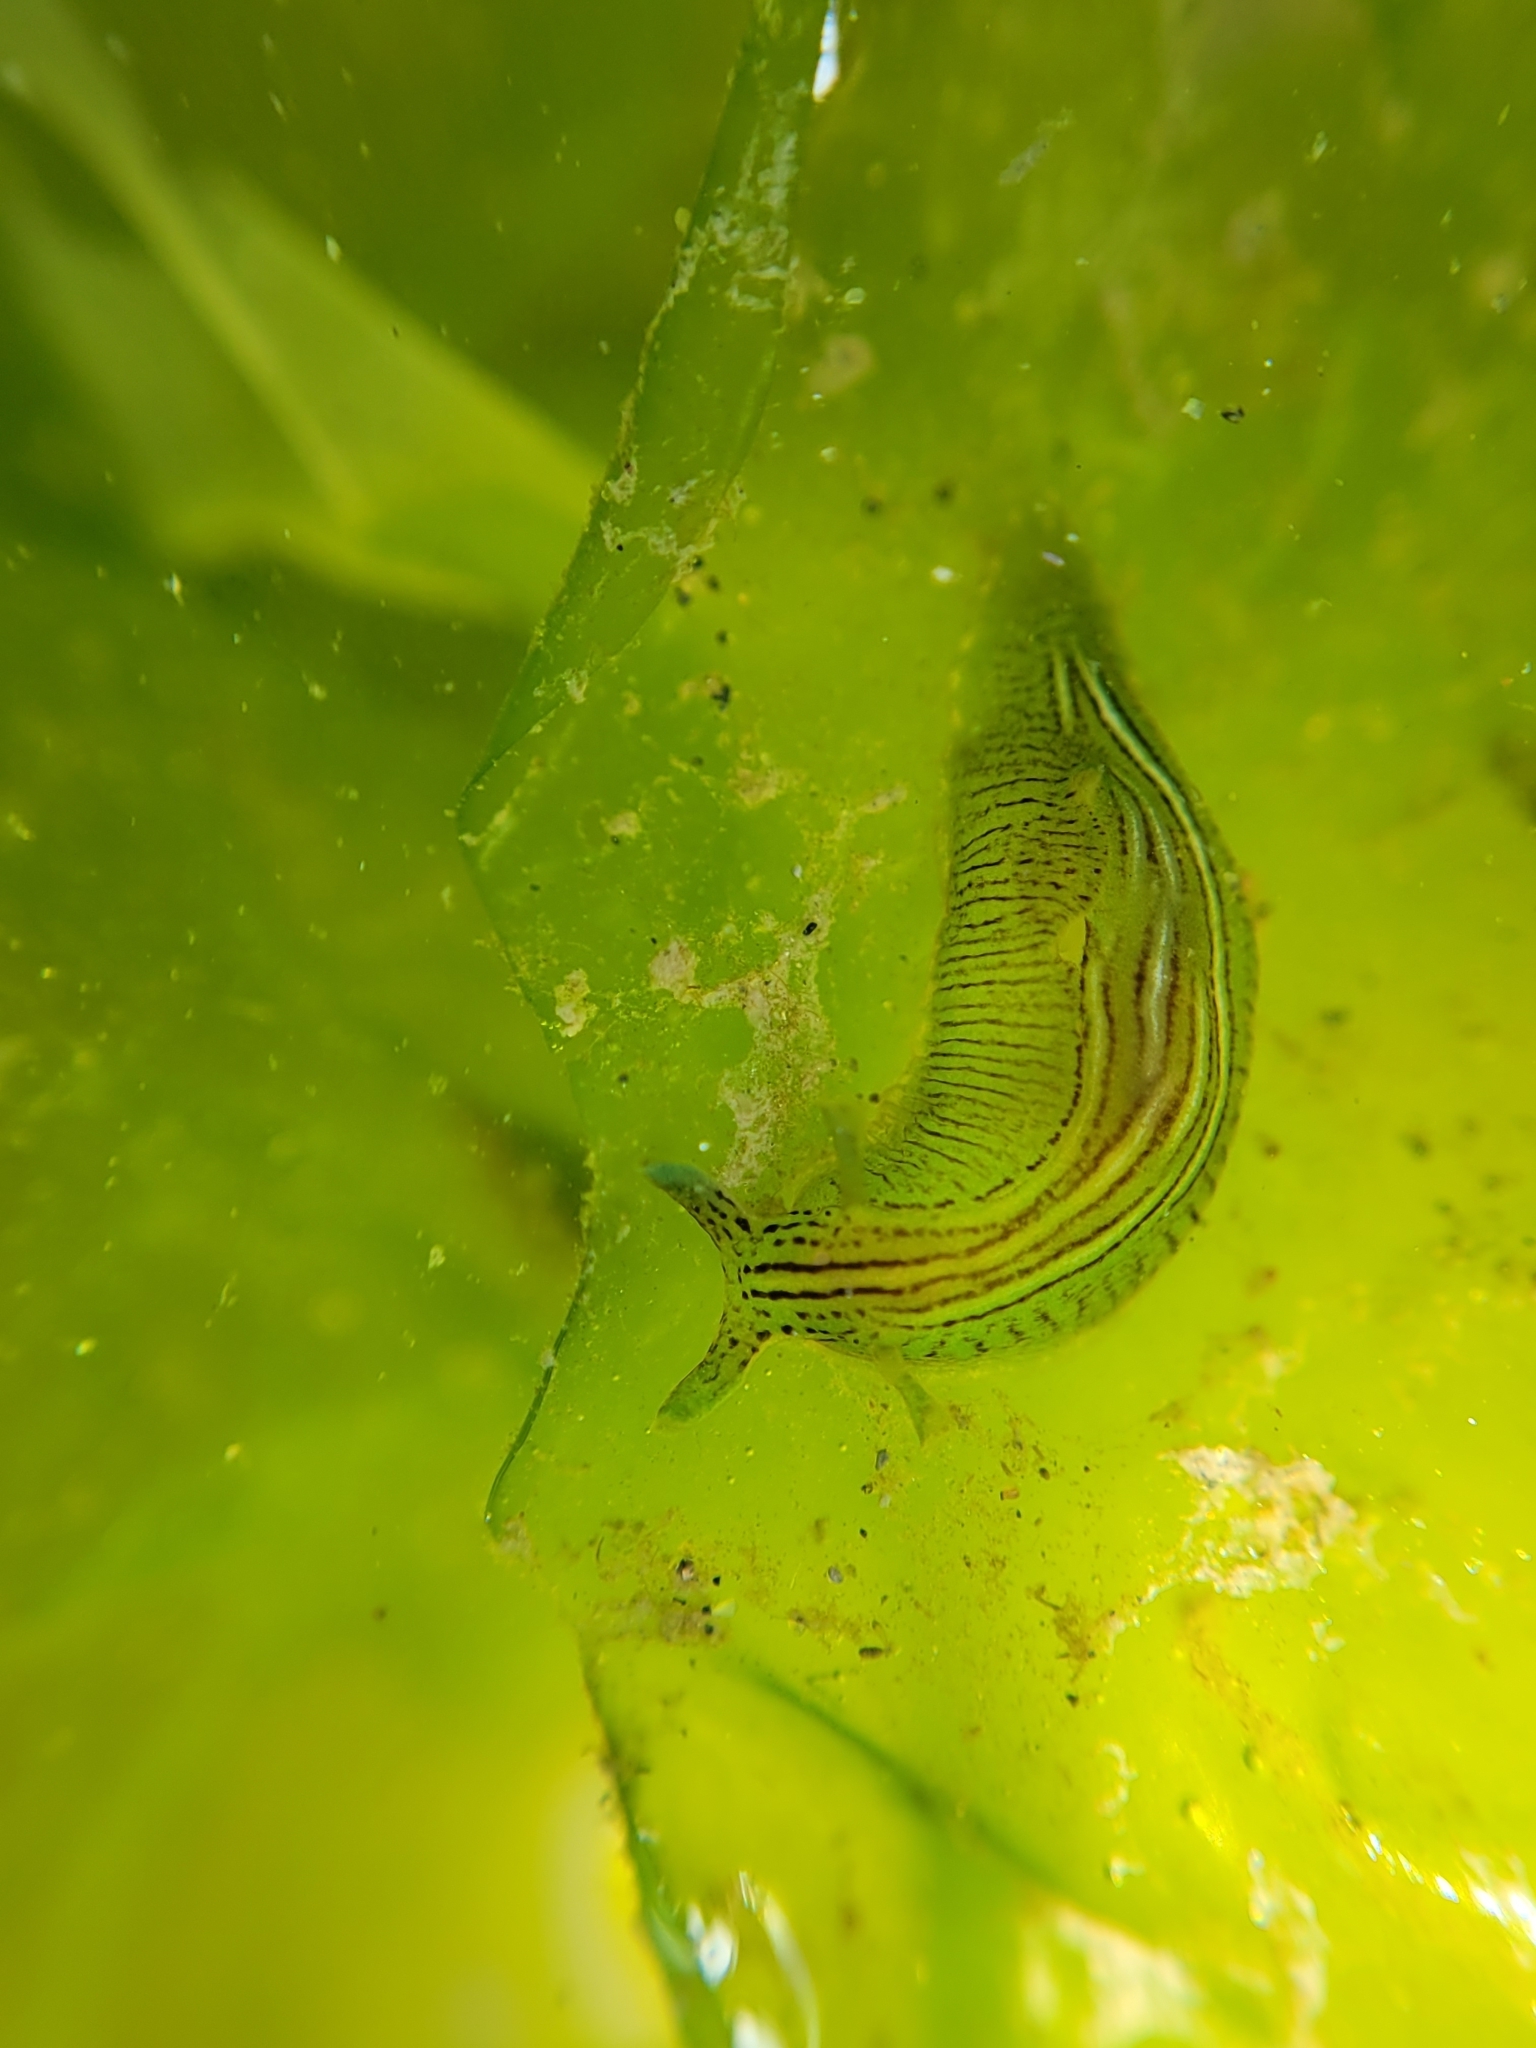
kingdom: Animalia
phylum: Mollusca
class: Gastropoda
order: Aplysiida
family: Aplysiidae
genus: Phyllaplysia
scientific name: Phyllaplysia taylori
